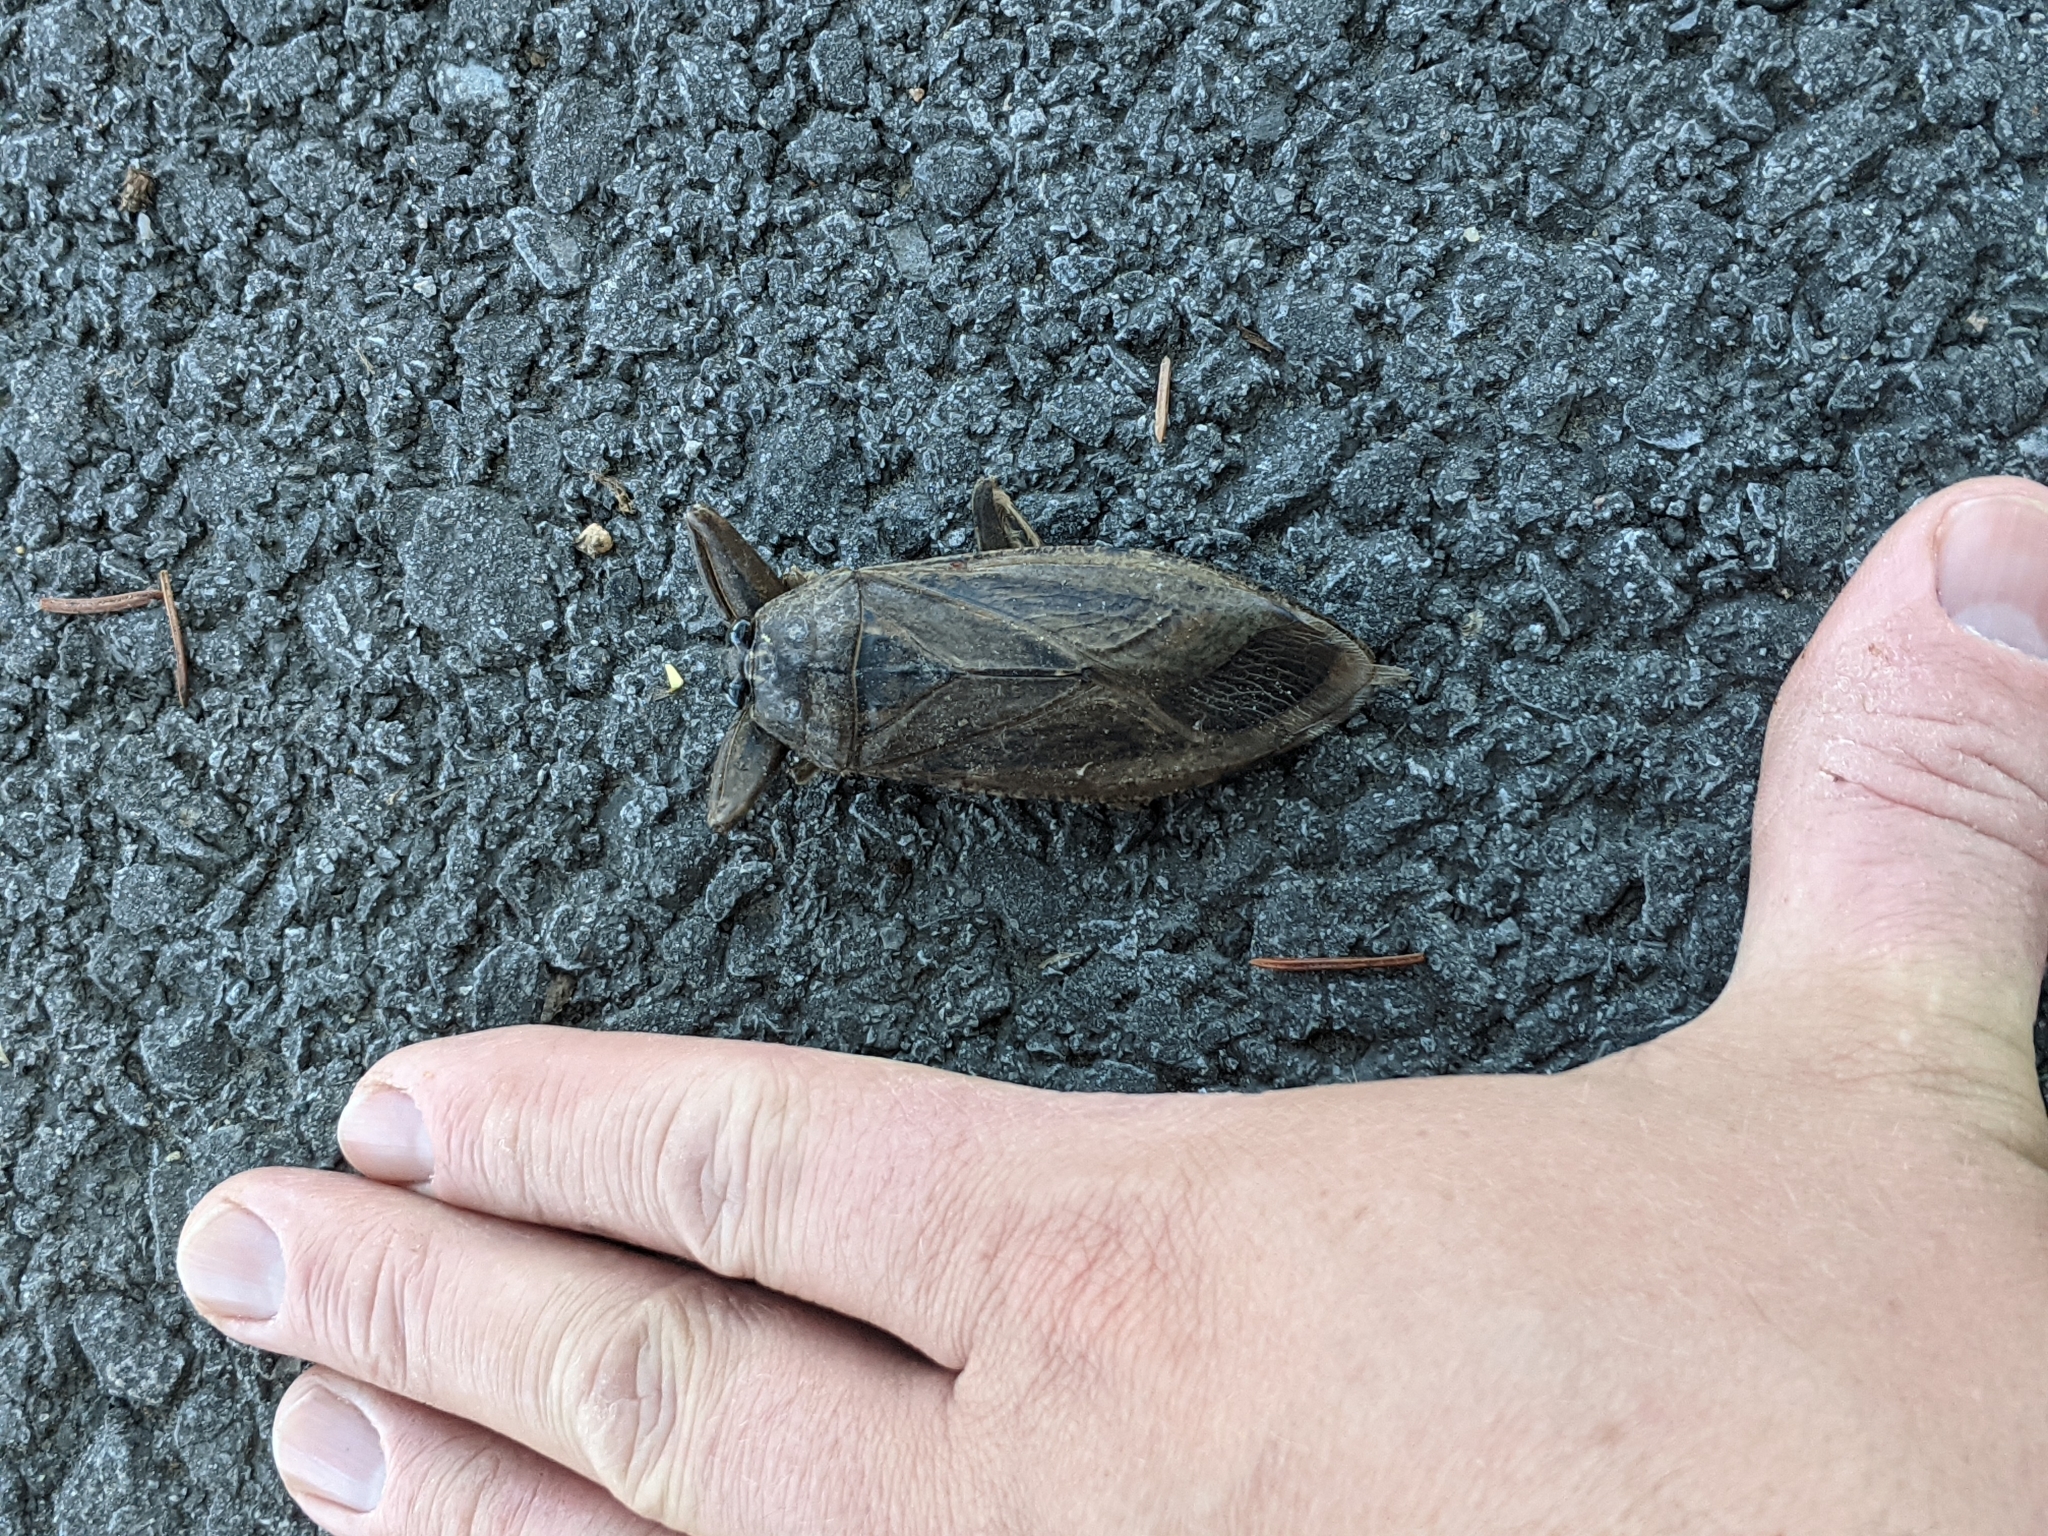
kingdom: Animalia
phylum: Arthropoda
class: Insecta
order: Hemiptera
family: Belostomatidae
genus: Lethocerus
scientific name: Lethocerus americanus
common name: Giant water bug
